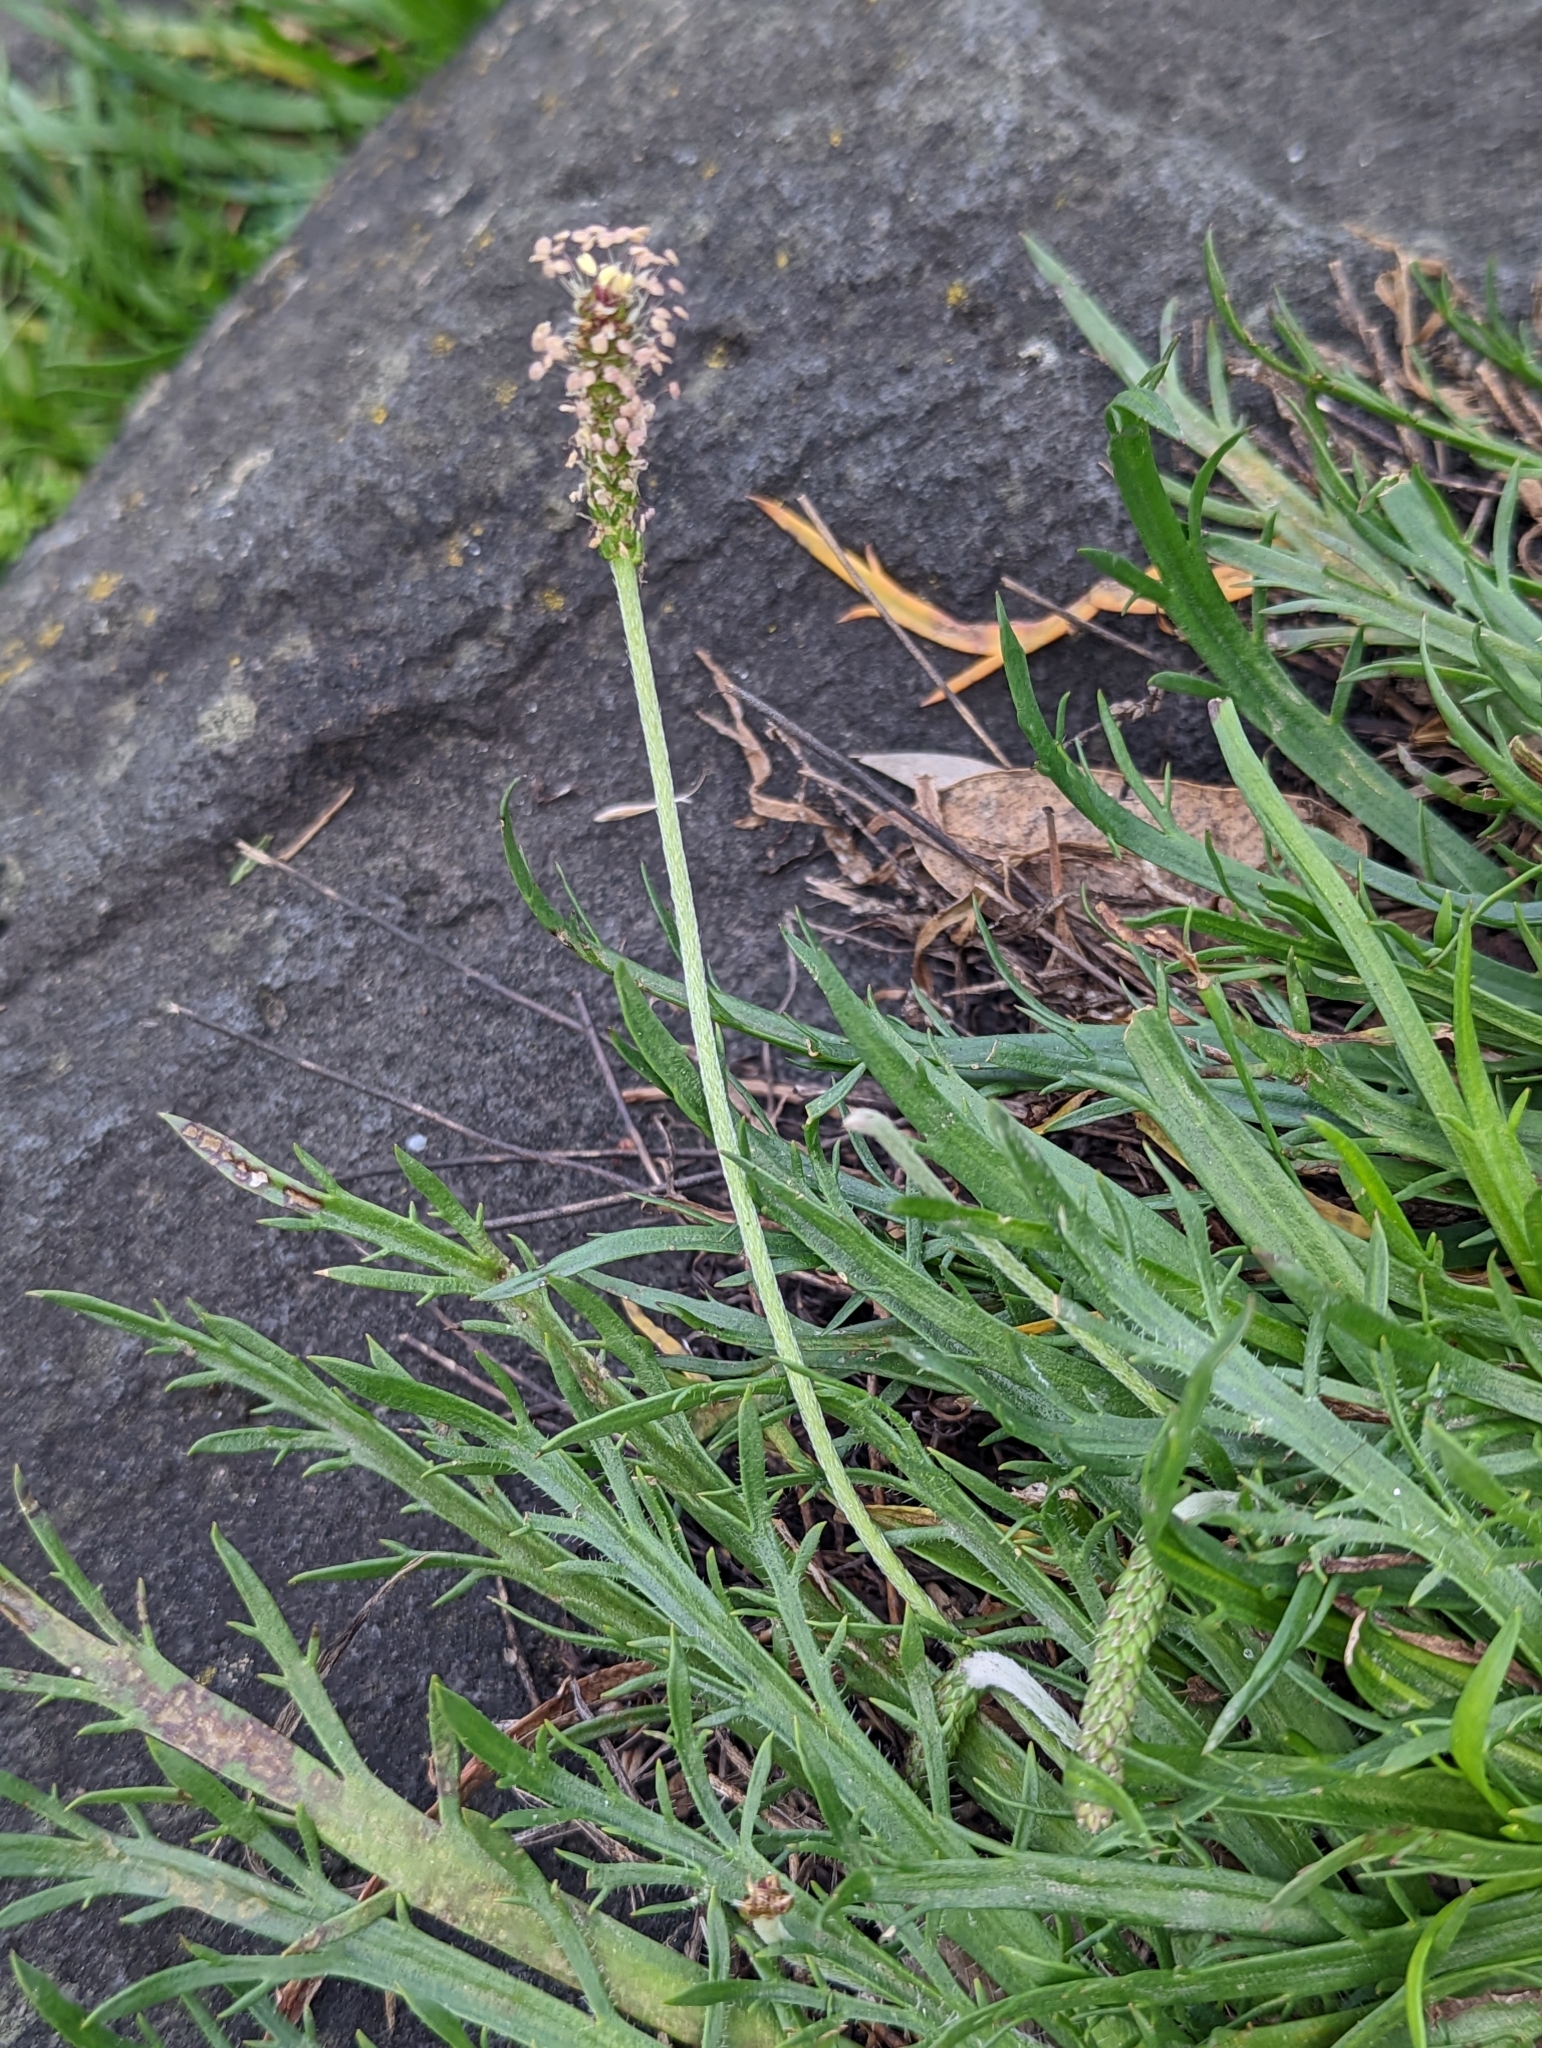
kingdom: Plantae
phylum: Tracheophyta
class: Magnoliopsida
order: Lamiales
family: Plantaginaceae
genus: Plantago
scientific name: Plantago coronopus
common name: Buck's-horn plantain
